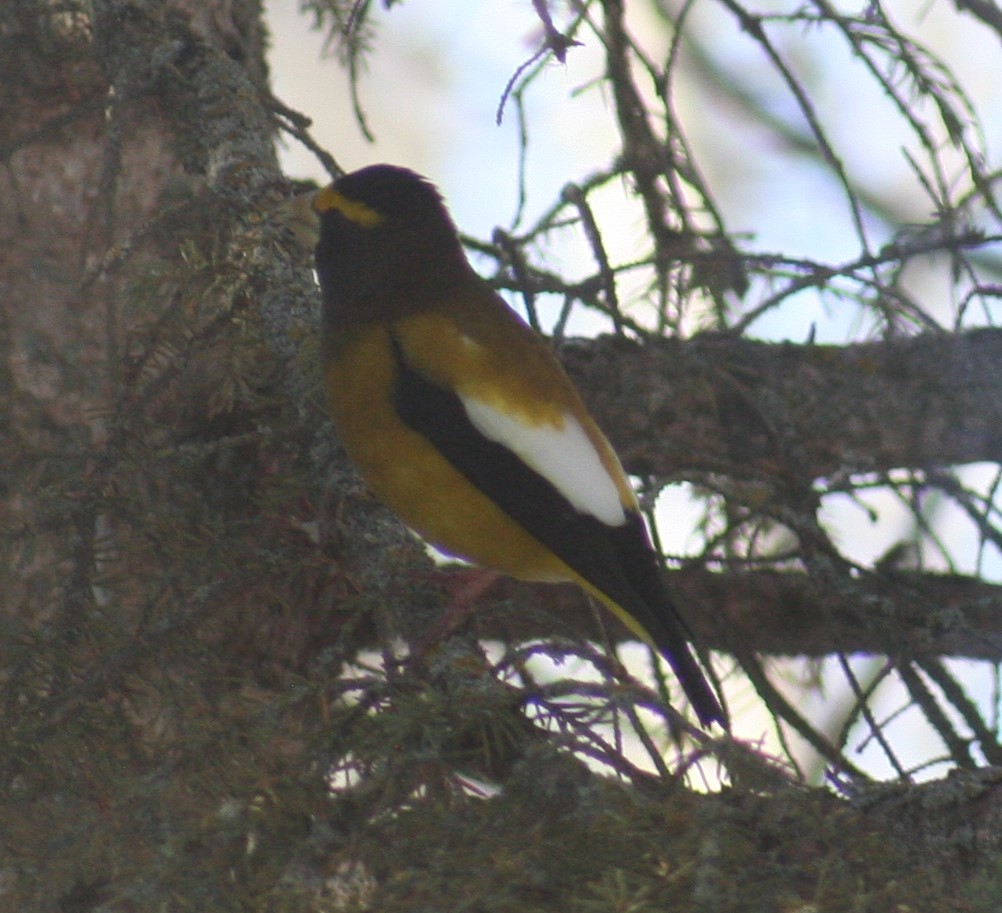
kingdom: Animalia
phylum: Chordata
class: Aves
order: Passeriformes
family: Fringillidae
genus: Hesperiphona
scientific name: Hesperiphona vespertina
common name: Evening grosbeak
